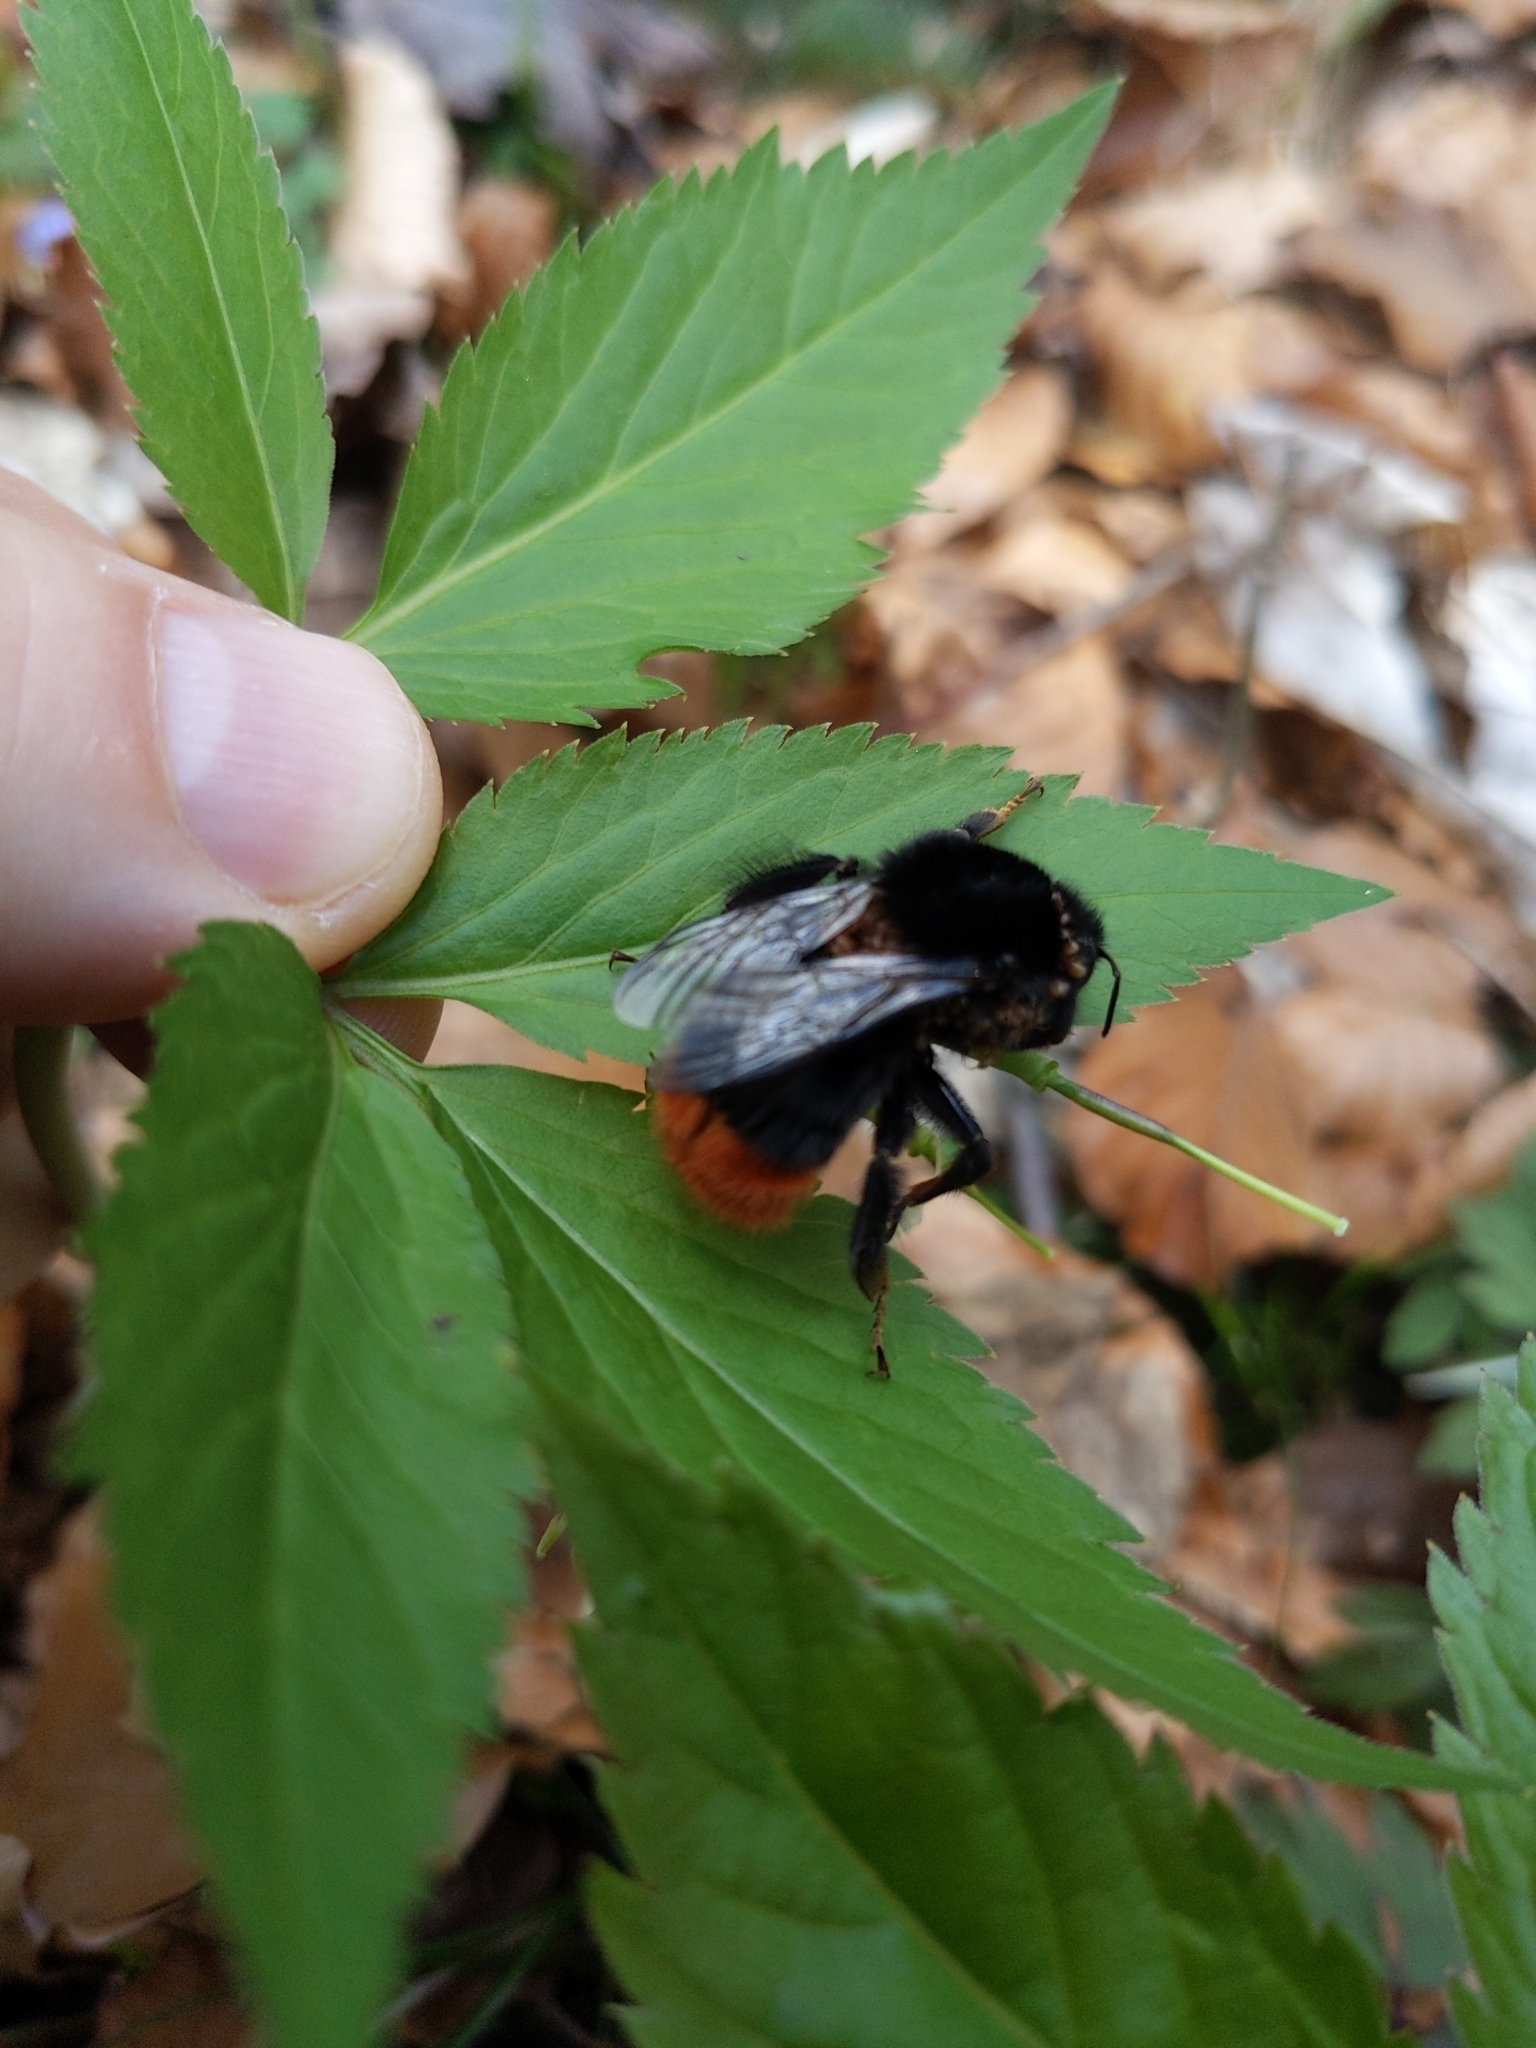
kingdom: Animalia
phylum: Arthropoda
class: Insecta
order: Hymenoptera
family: Apidae
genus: Bombus
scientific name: Bombus lapidarius
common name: Large red-tailed humble-bee
